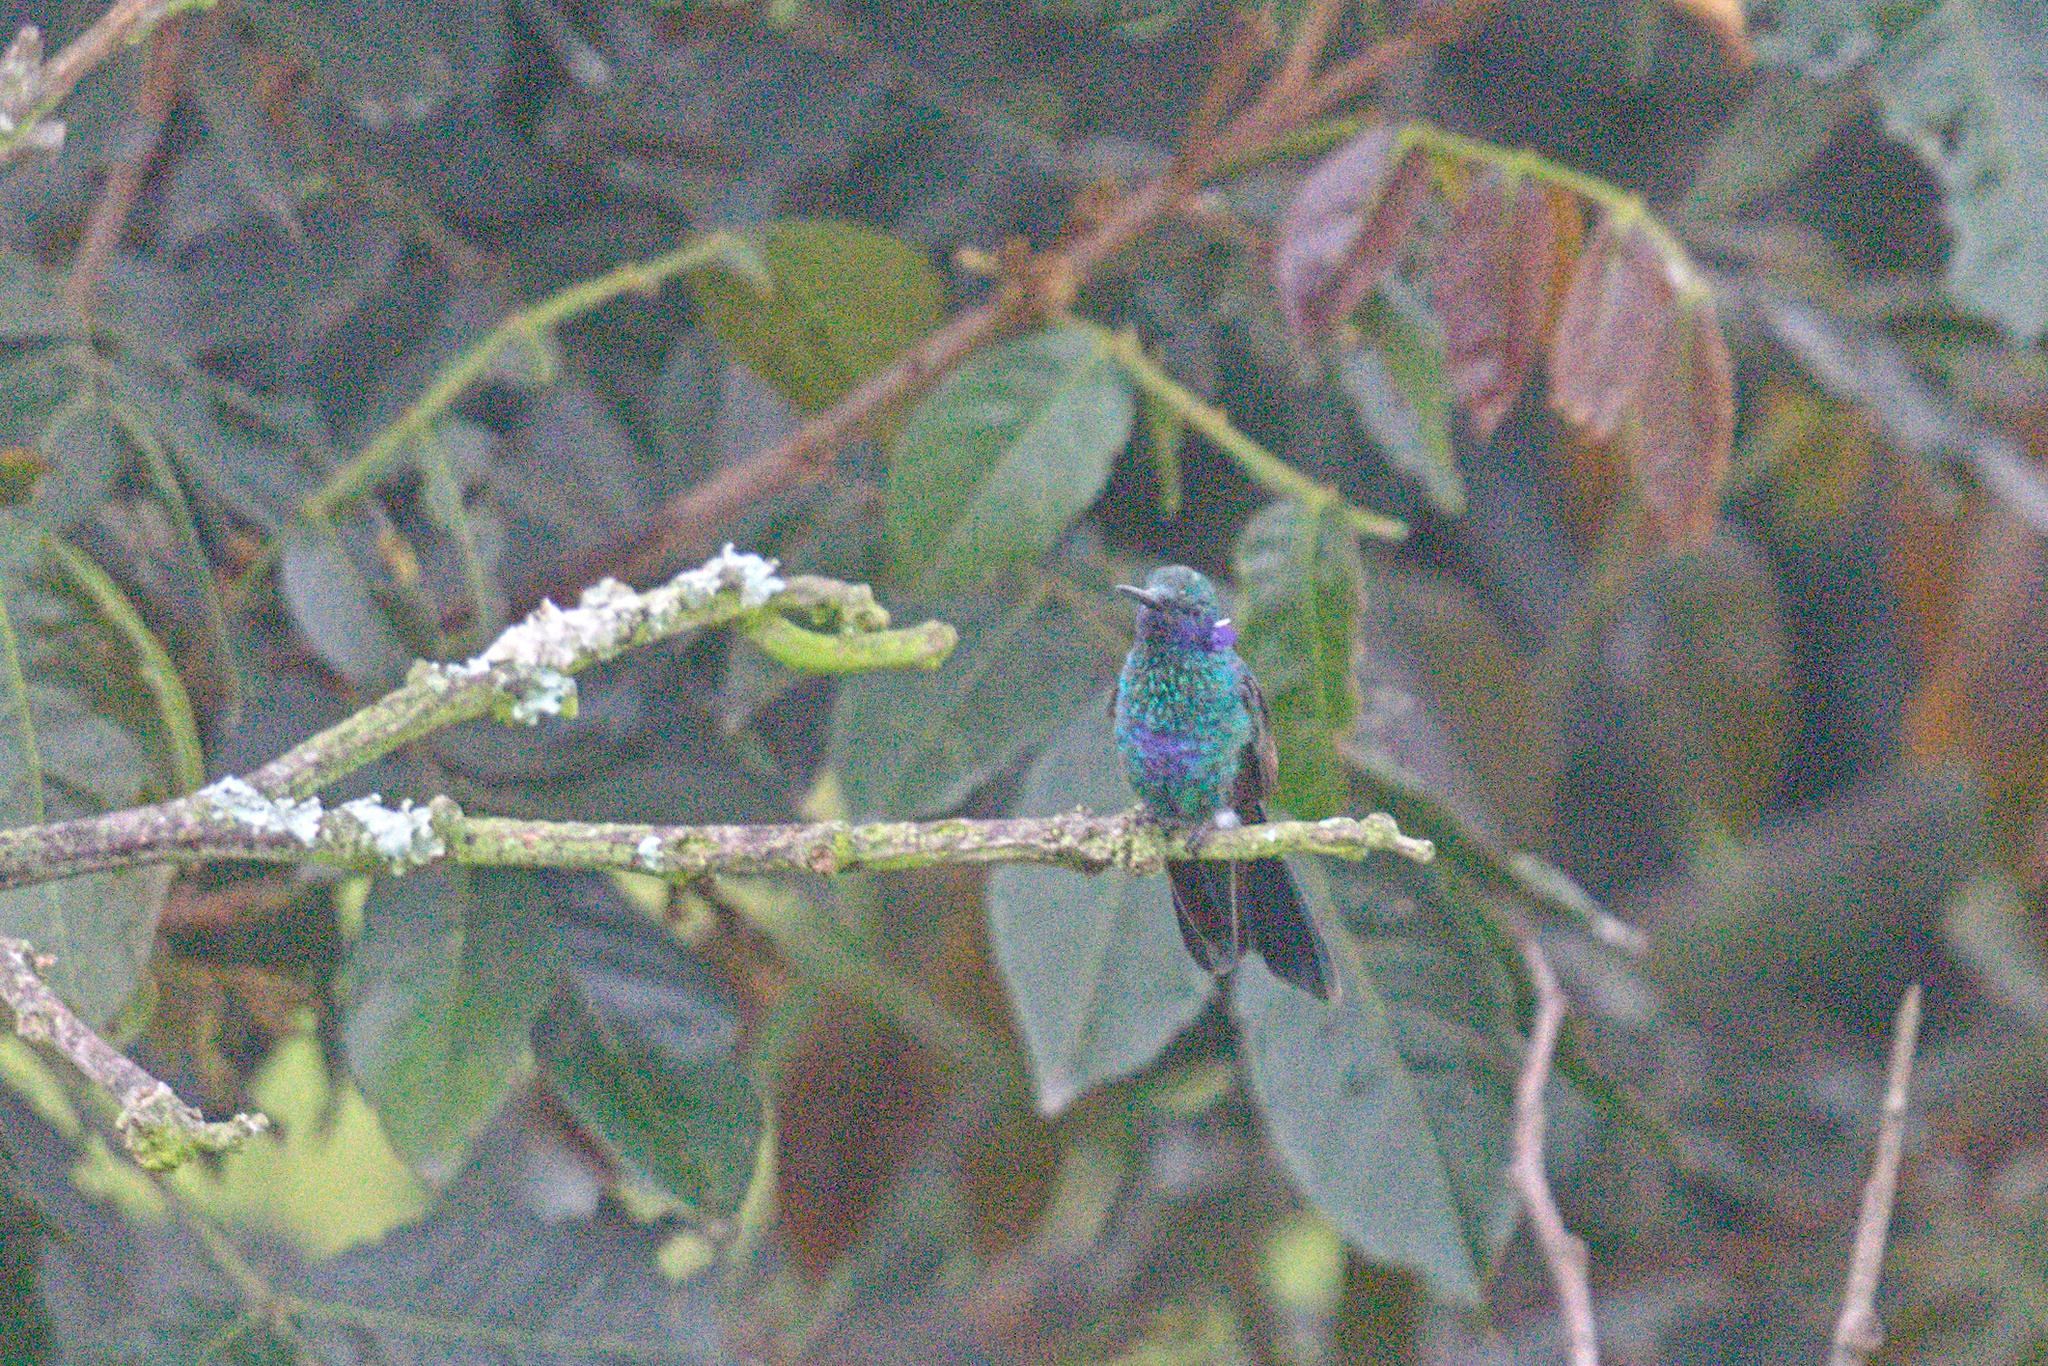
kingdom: Animalia
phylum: Chordata
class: Aves
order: Apodiformes
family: Trochilidae
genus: Colibri
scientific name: Colibri coruscans
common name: Sparkling violetear
